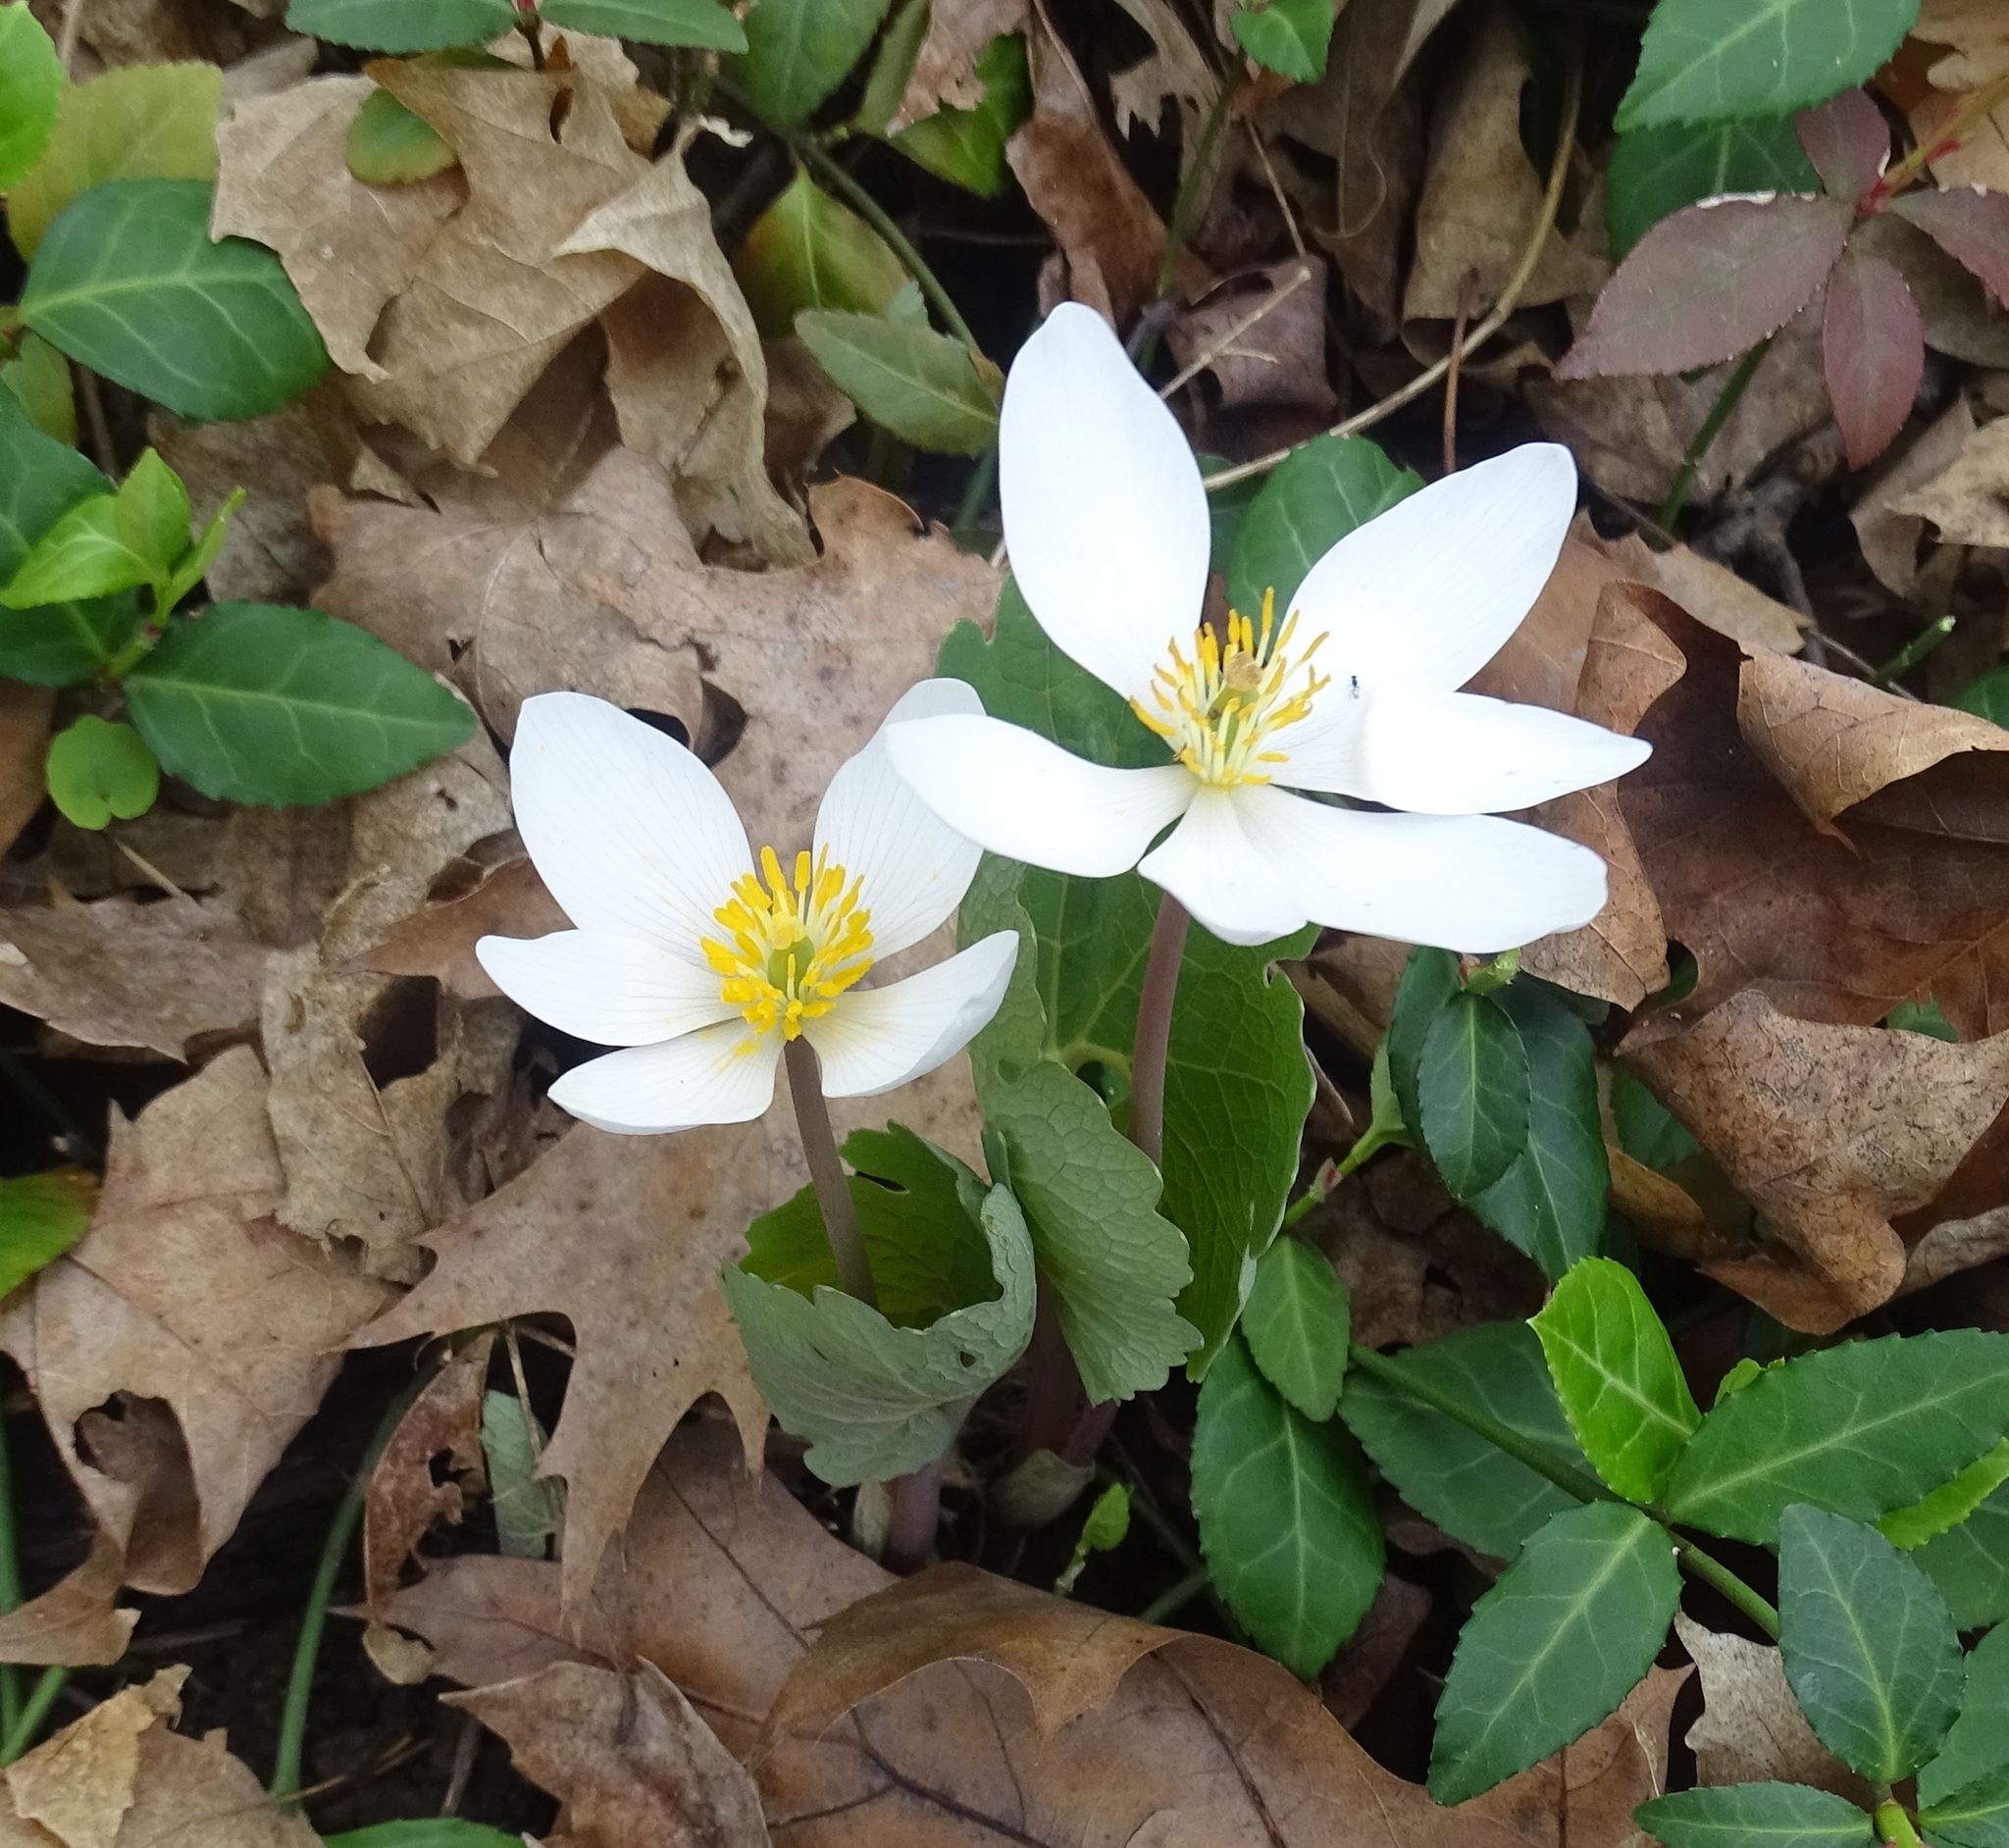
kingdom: Plantae
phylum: Tracheophyta
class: Magnoliopsida
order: Ranunculales
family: Papaveraceae
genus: Sanguinaria
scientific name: Sanguinaria canadensis
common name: Bloodroot
